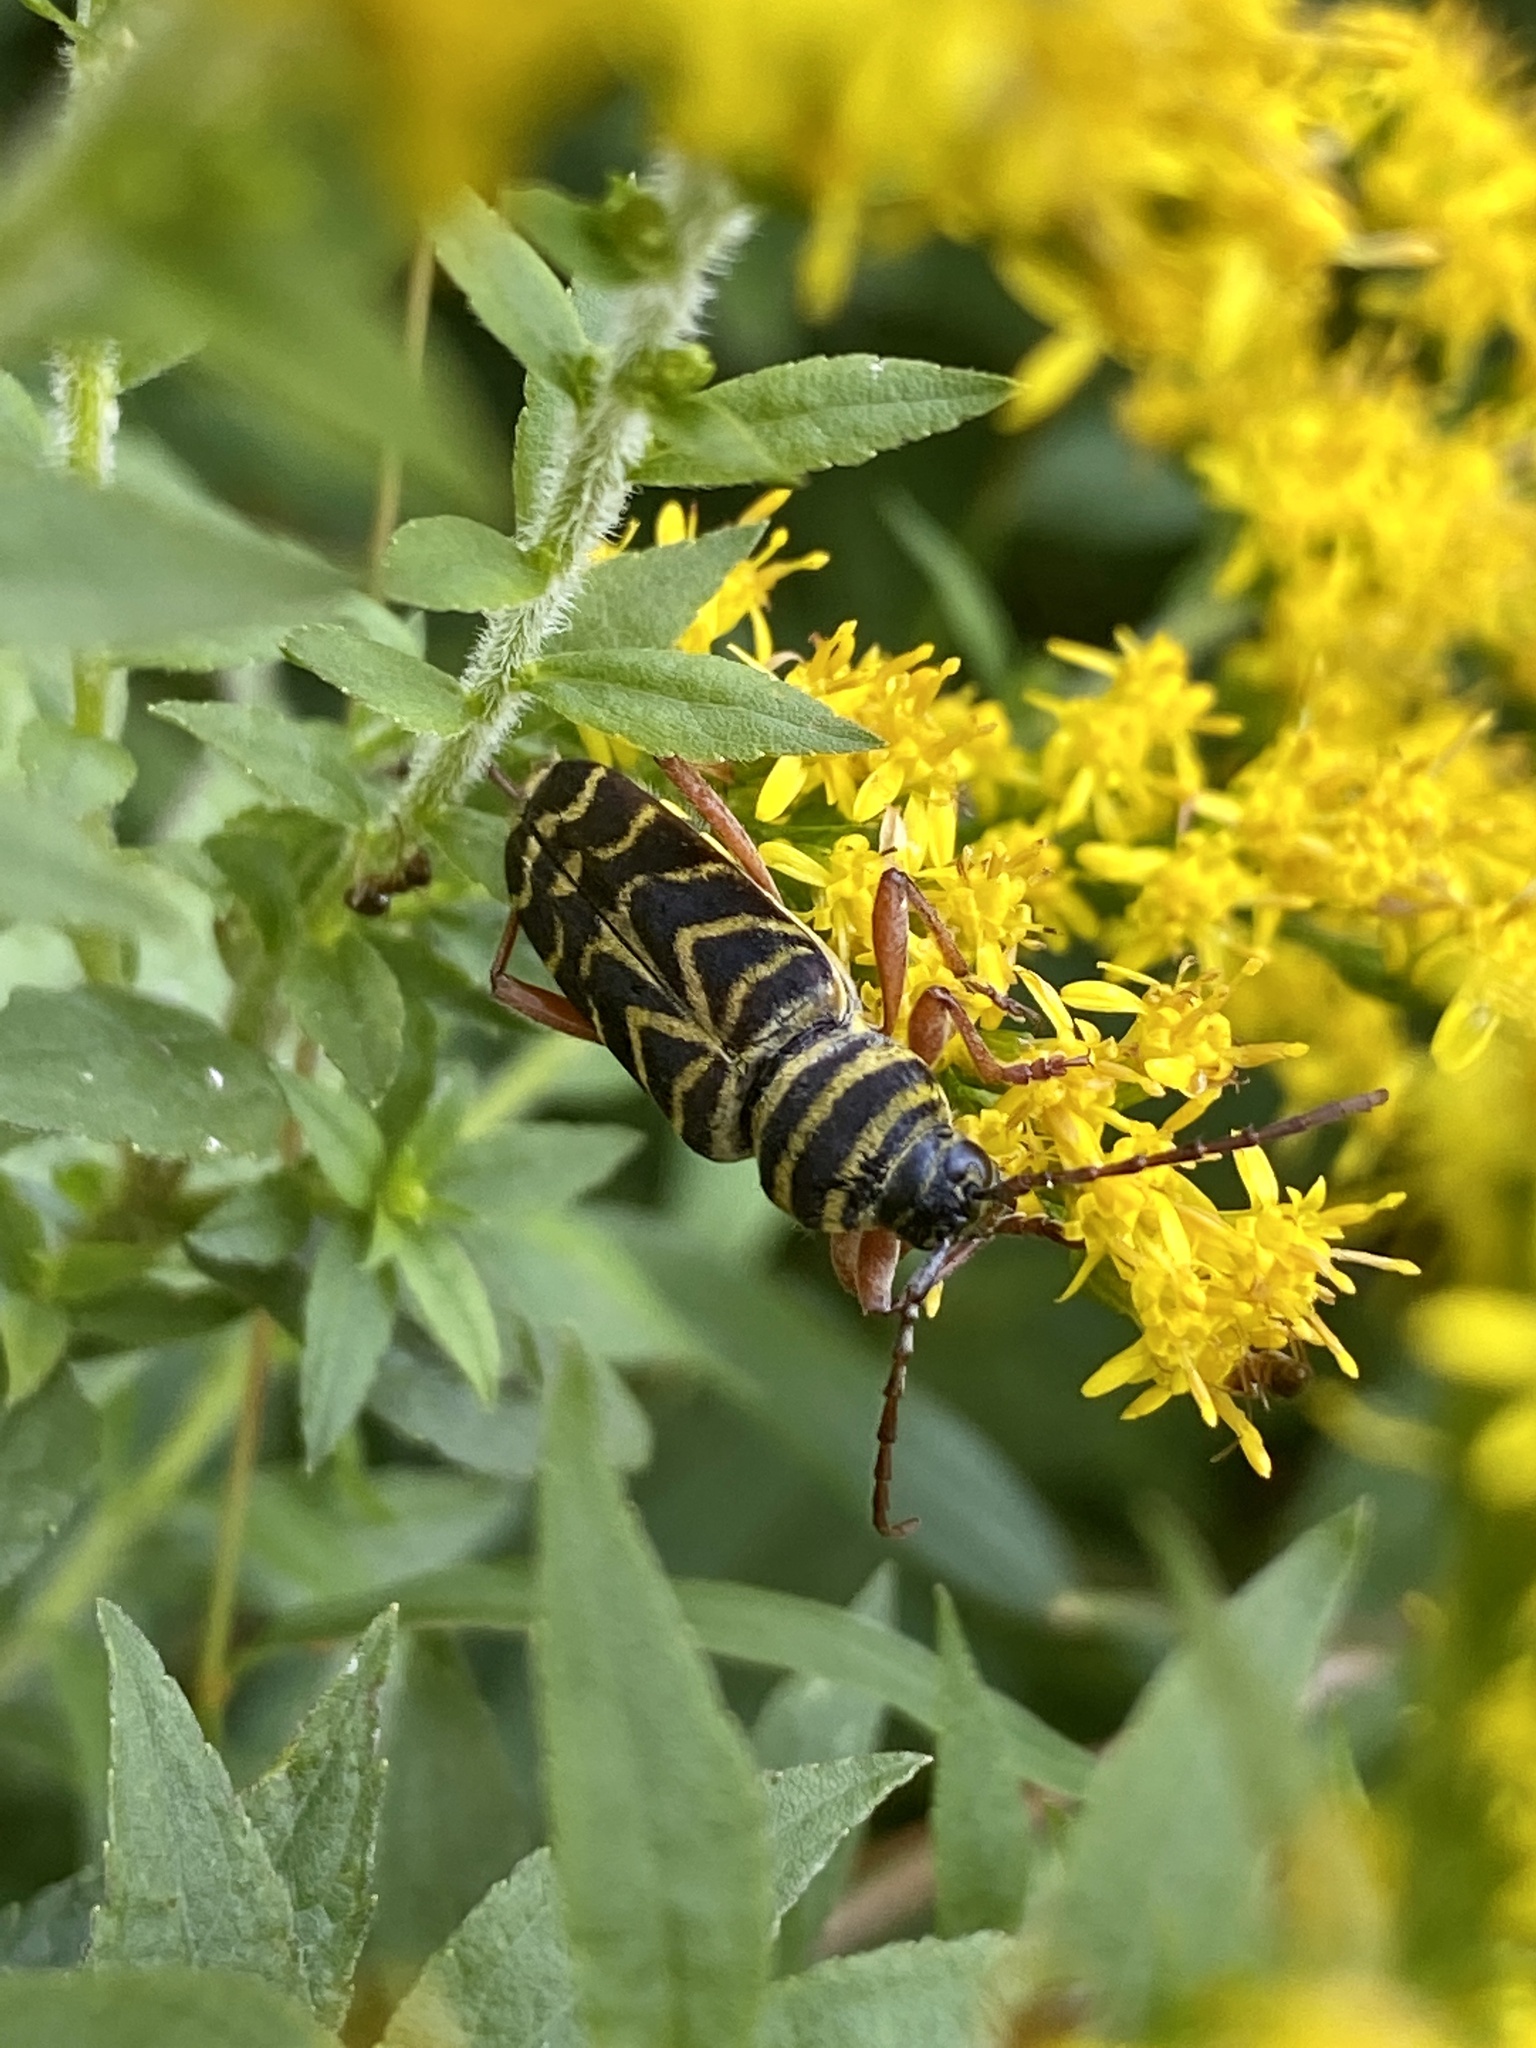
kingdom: Animalia
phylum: Arthropoda
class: Insecta
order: Coleoptera
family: Cerambycidae
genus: Megacyllene
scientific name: Megacyllene robiniae
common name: Locust borer
